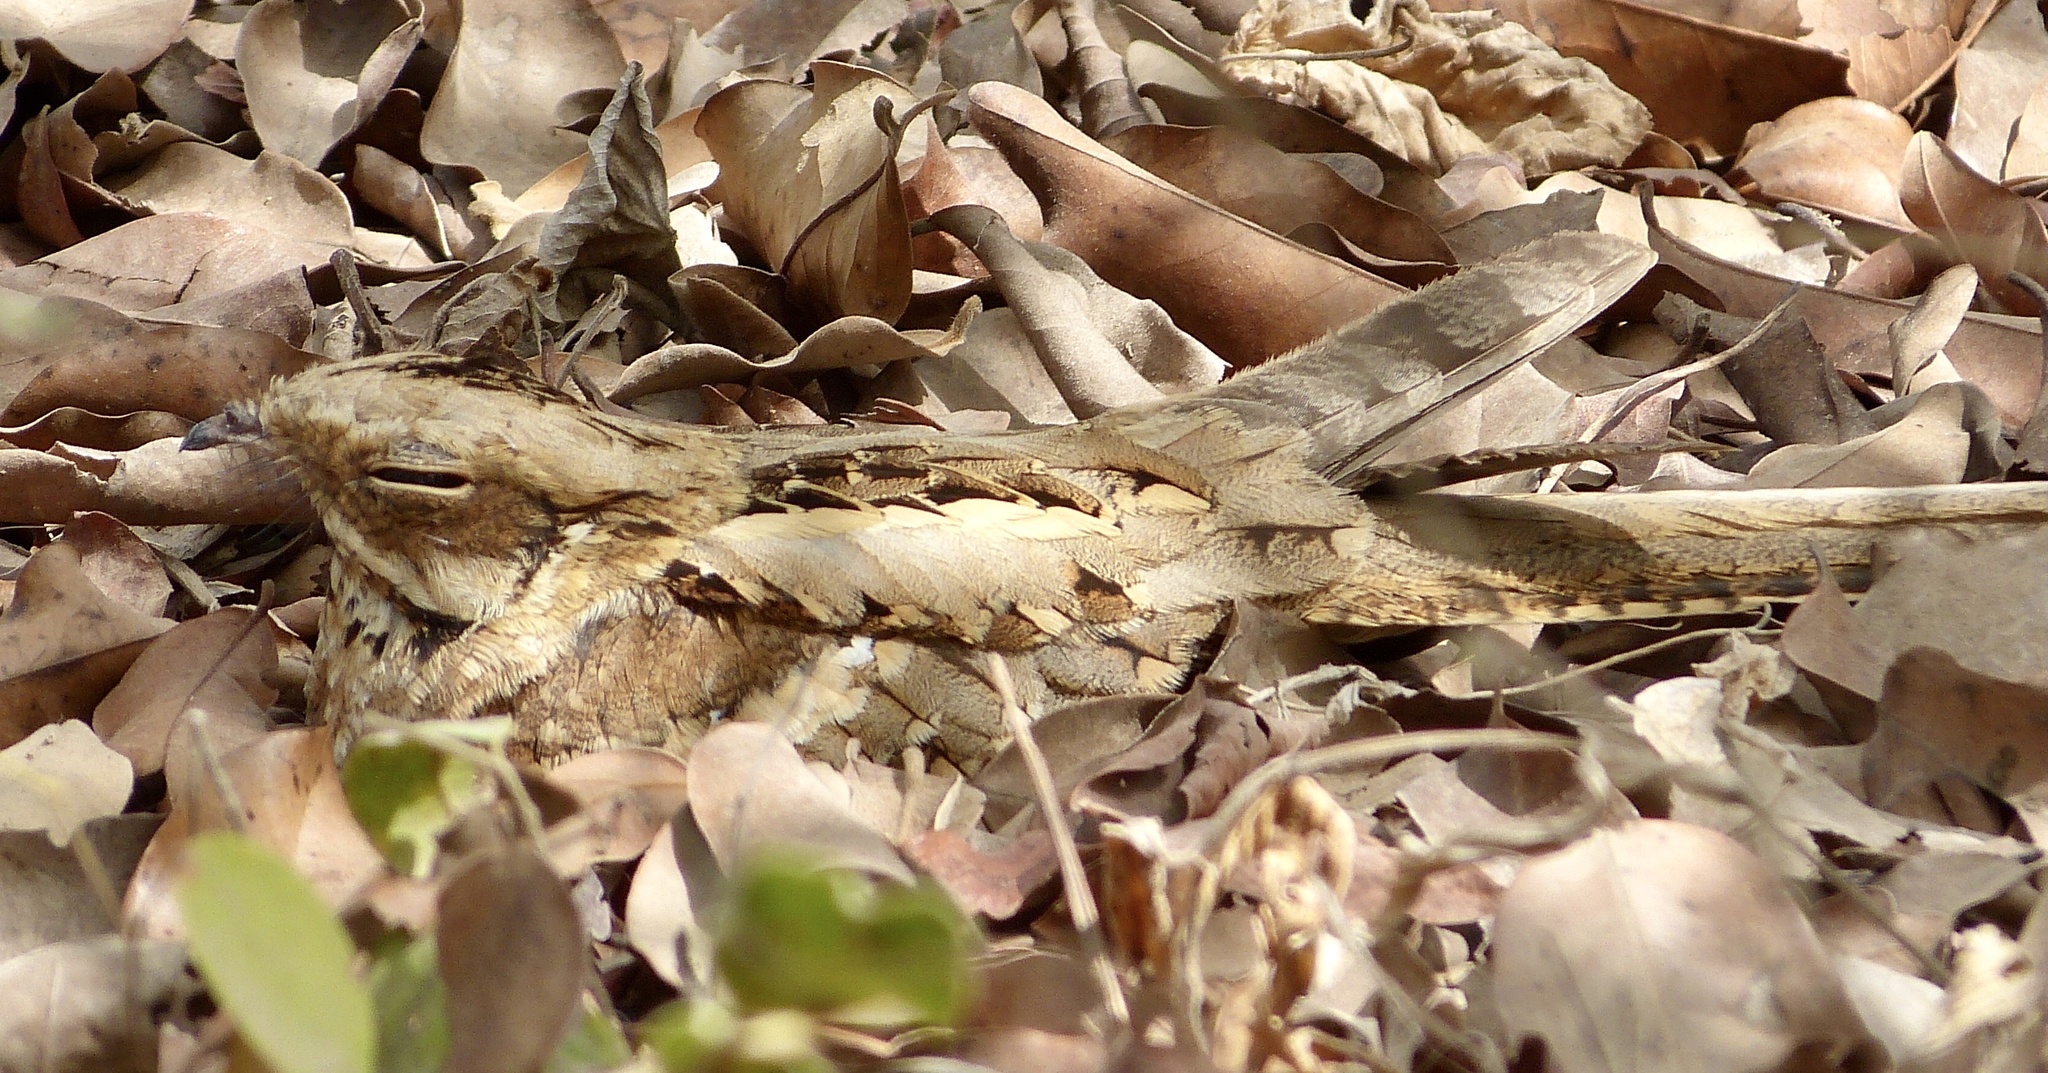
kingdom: Animalia
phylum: Chordata
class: Aves
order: Caprimulgiformes
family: Caprimulgidae
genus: Caprimulgus
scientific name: Caprimulgus climacurus
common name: Long-tailed nightjar
